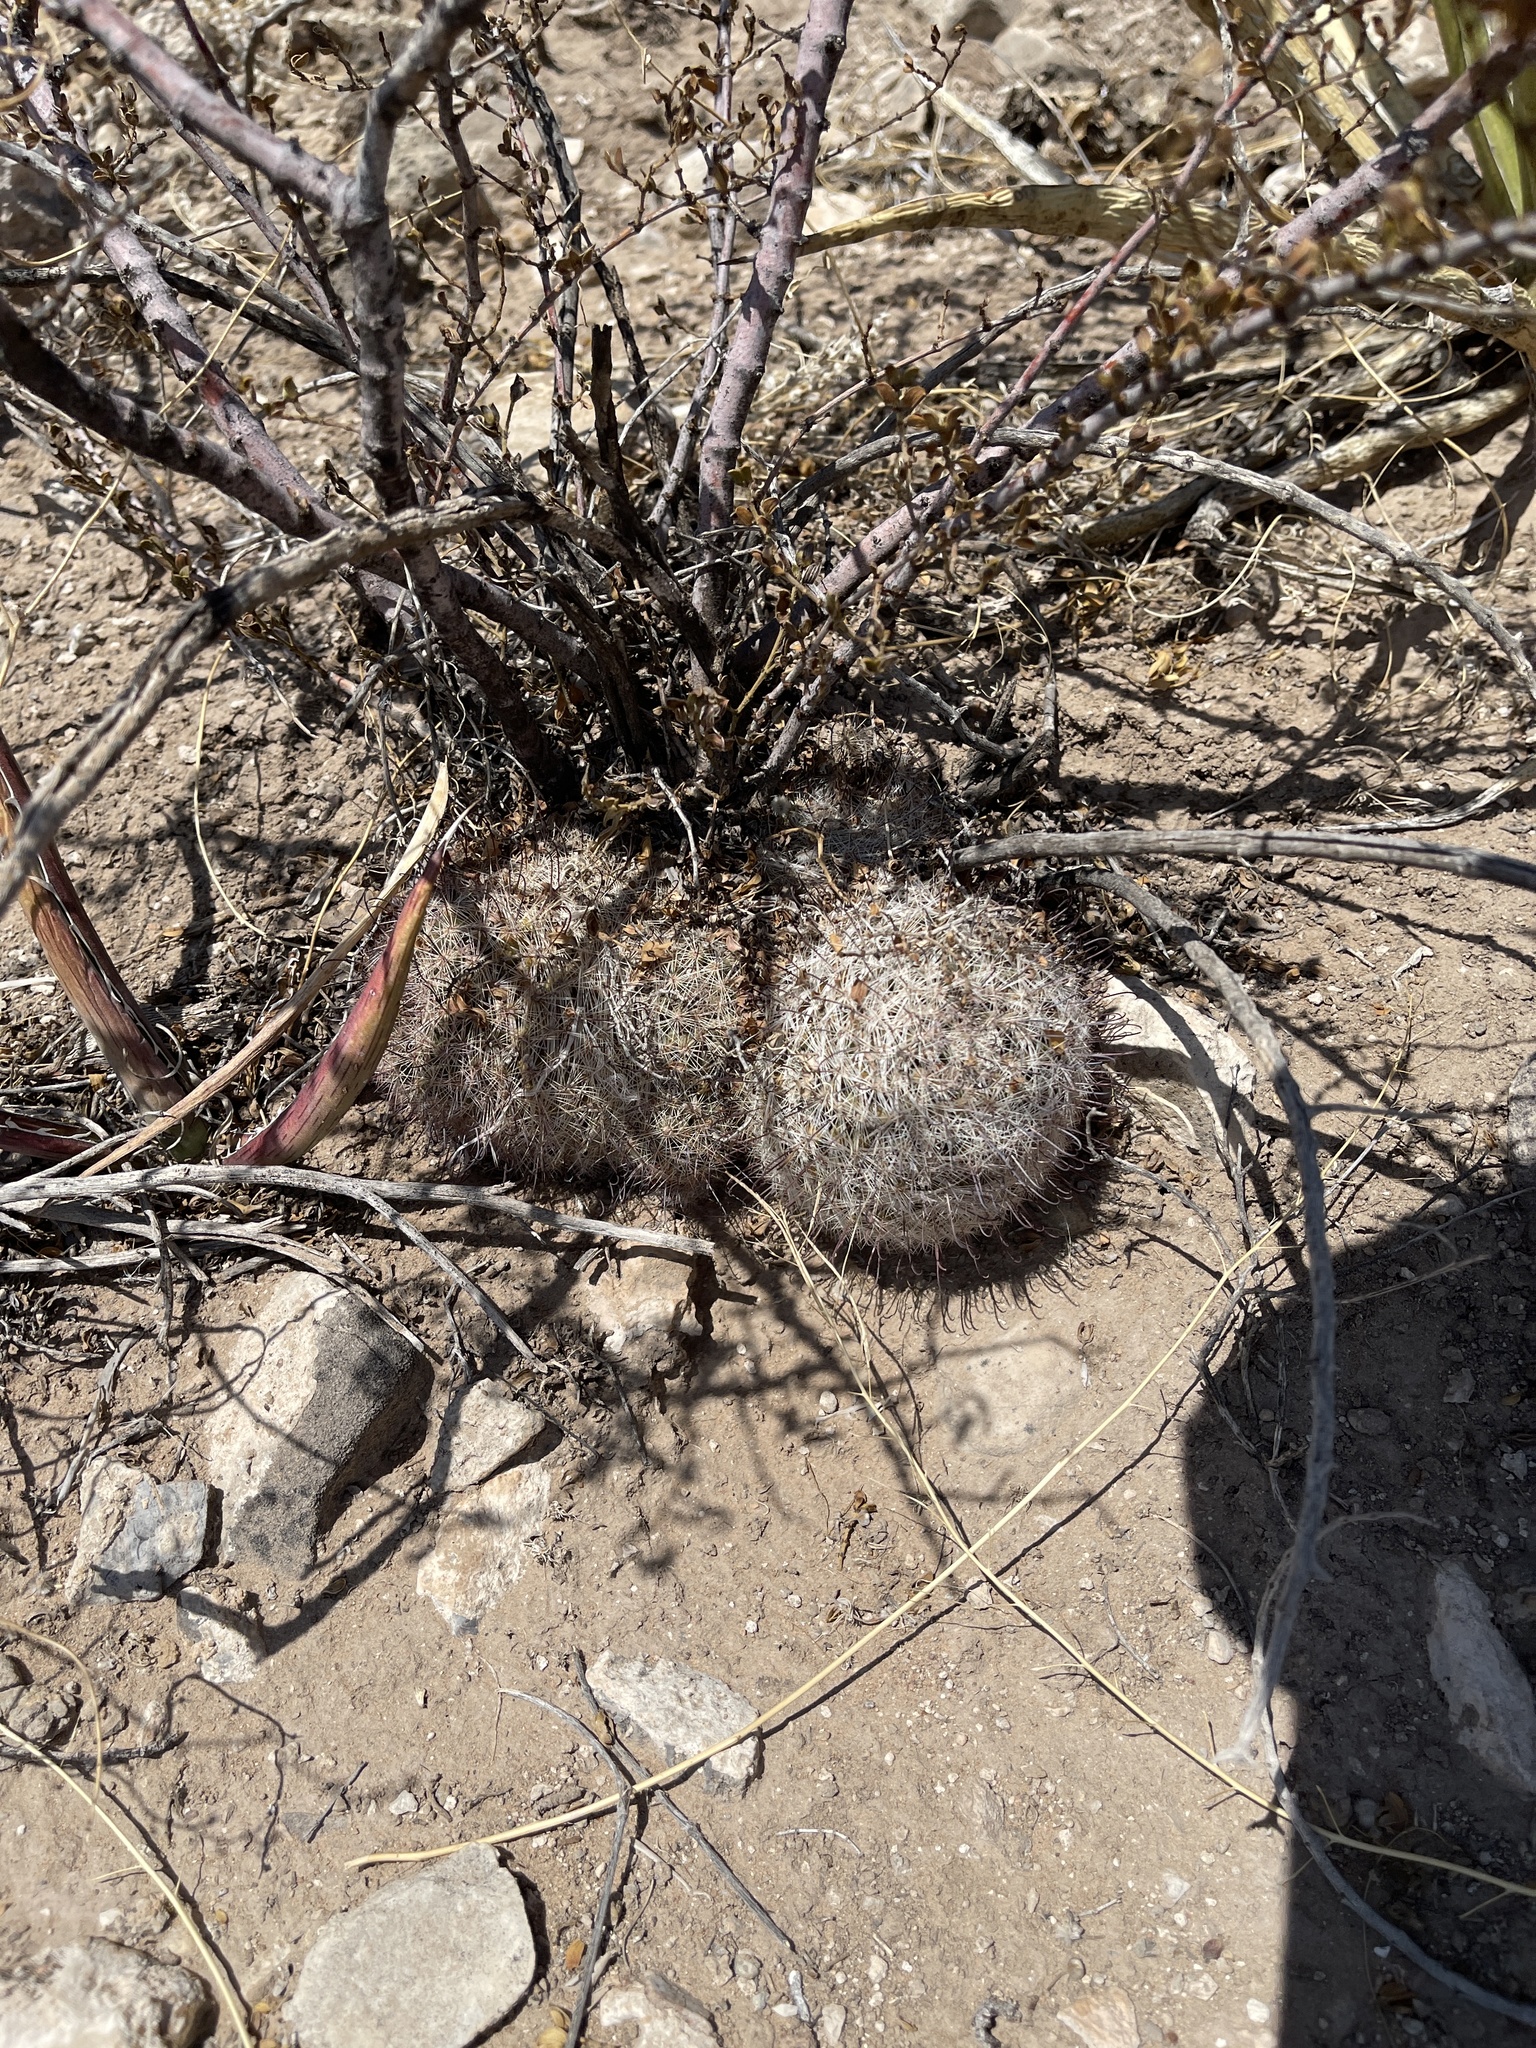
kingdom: Plantae
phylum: Tracheophyta
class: Magnoliopsida
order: Caryophyllales
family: Cactaceae
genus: Cochemiea
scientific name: Cochemiea grahamii
